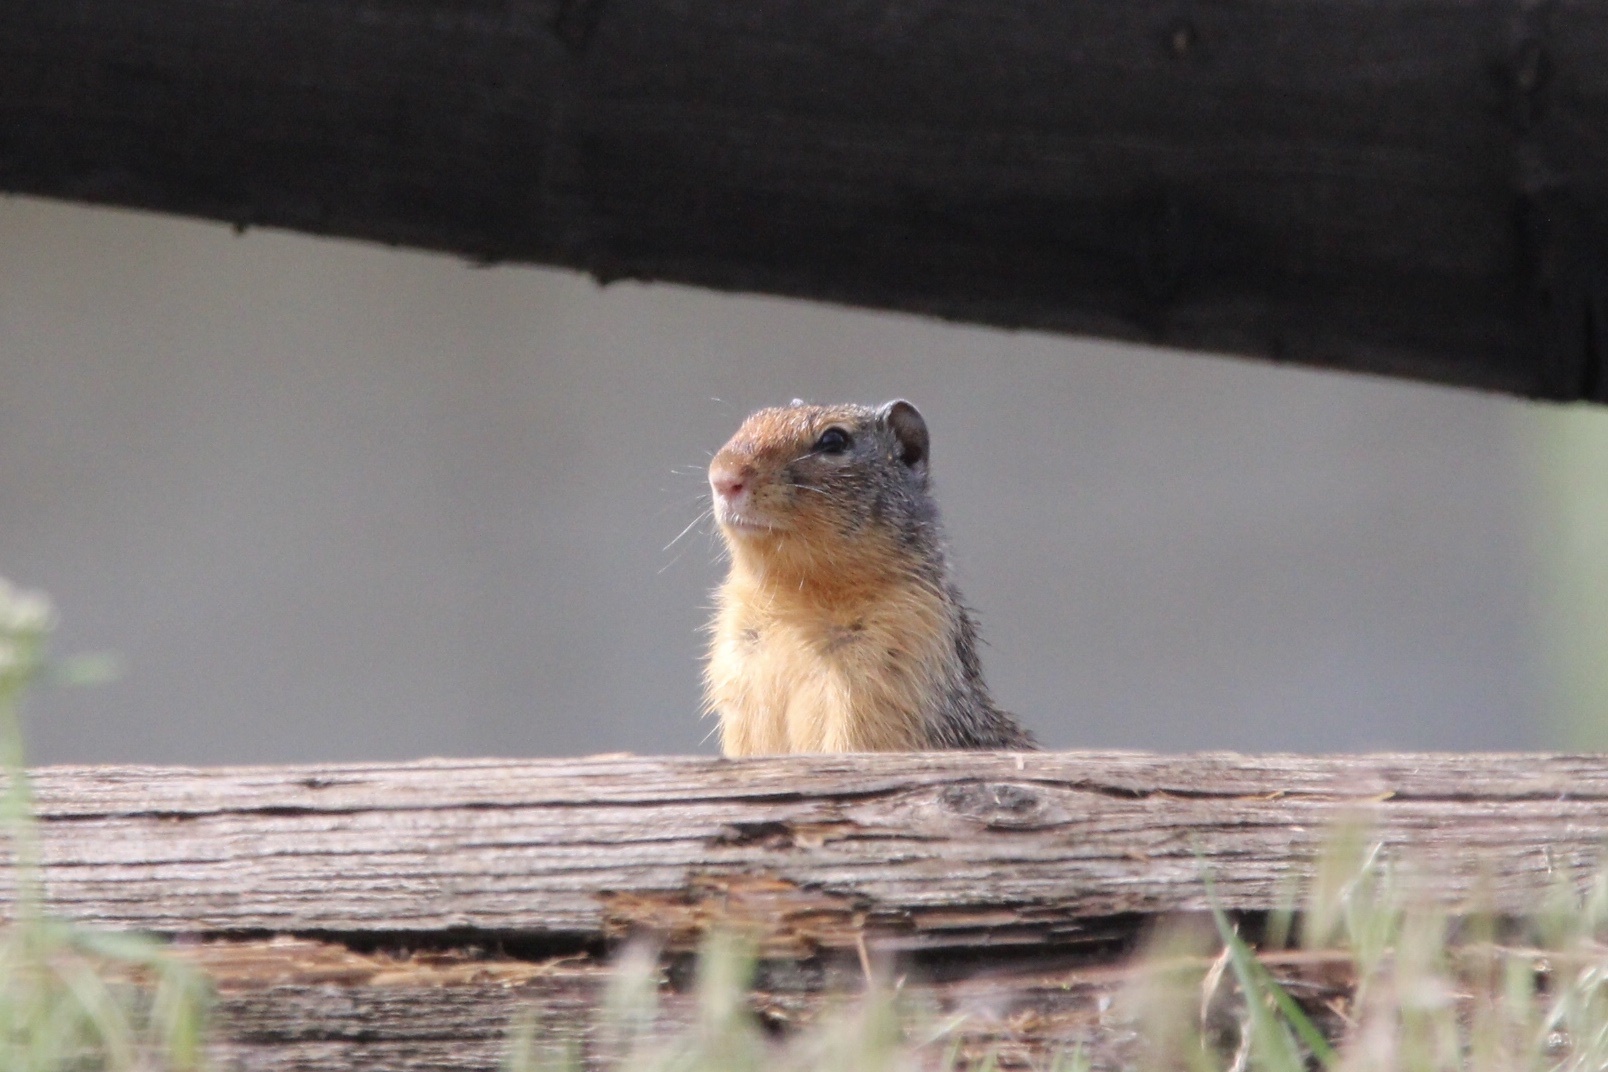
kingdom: Animalia
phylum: Chordata
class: Mammalia
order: Rodentia
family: Sciuridae
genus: Urocitellus
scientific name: Urocitellus columbianus
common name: Columbian ground squirrel
